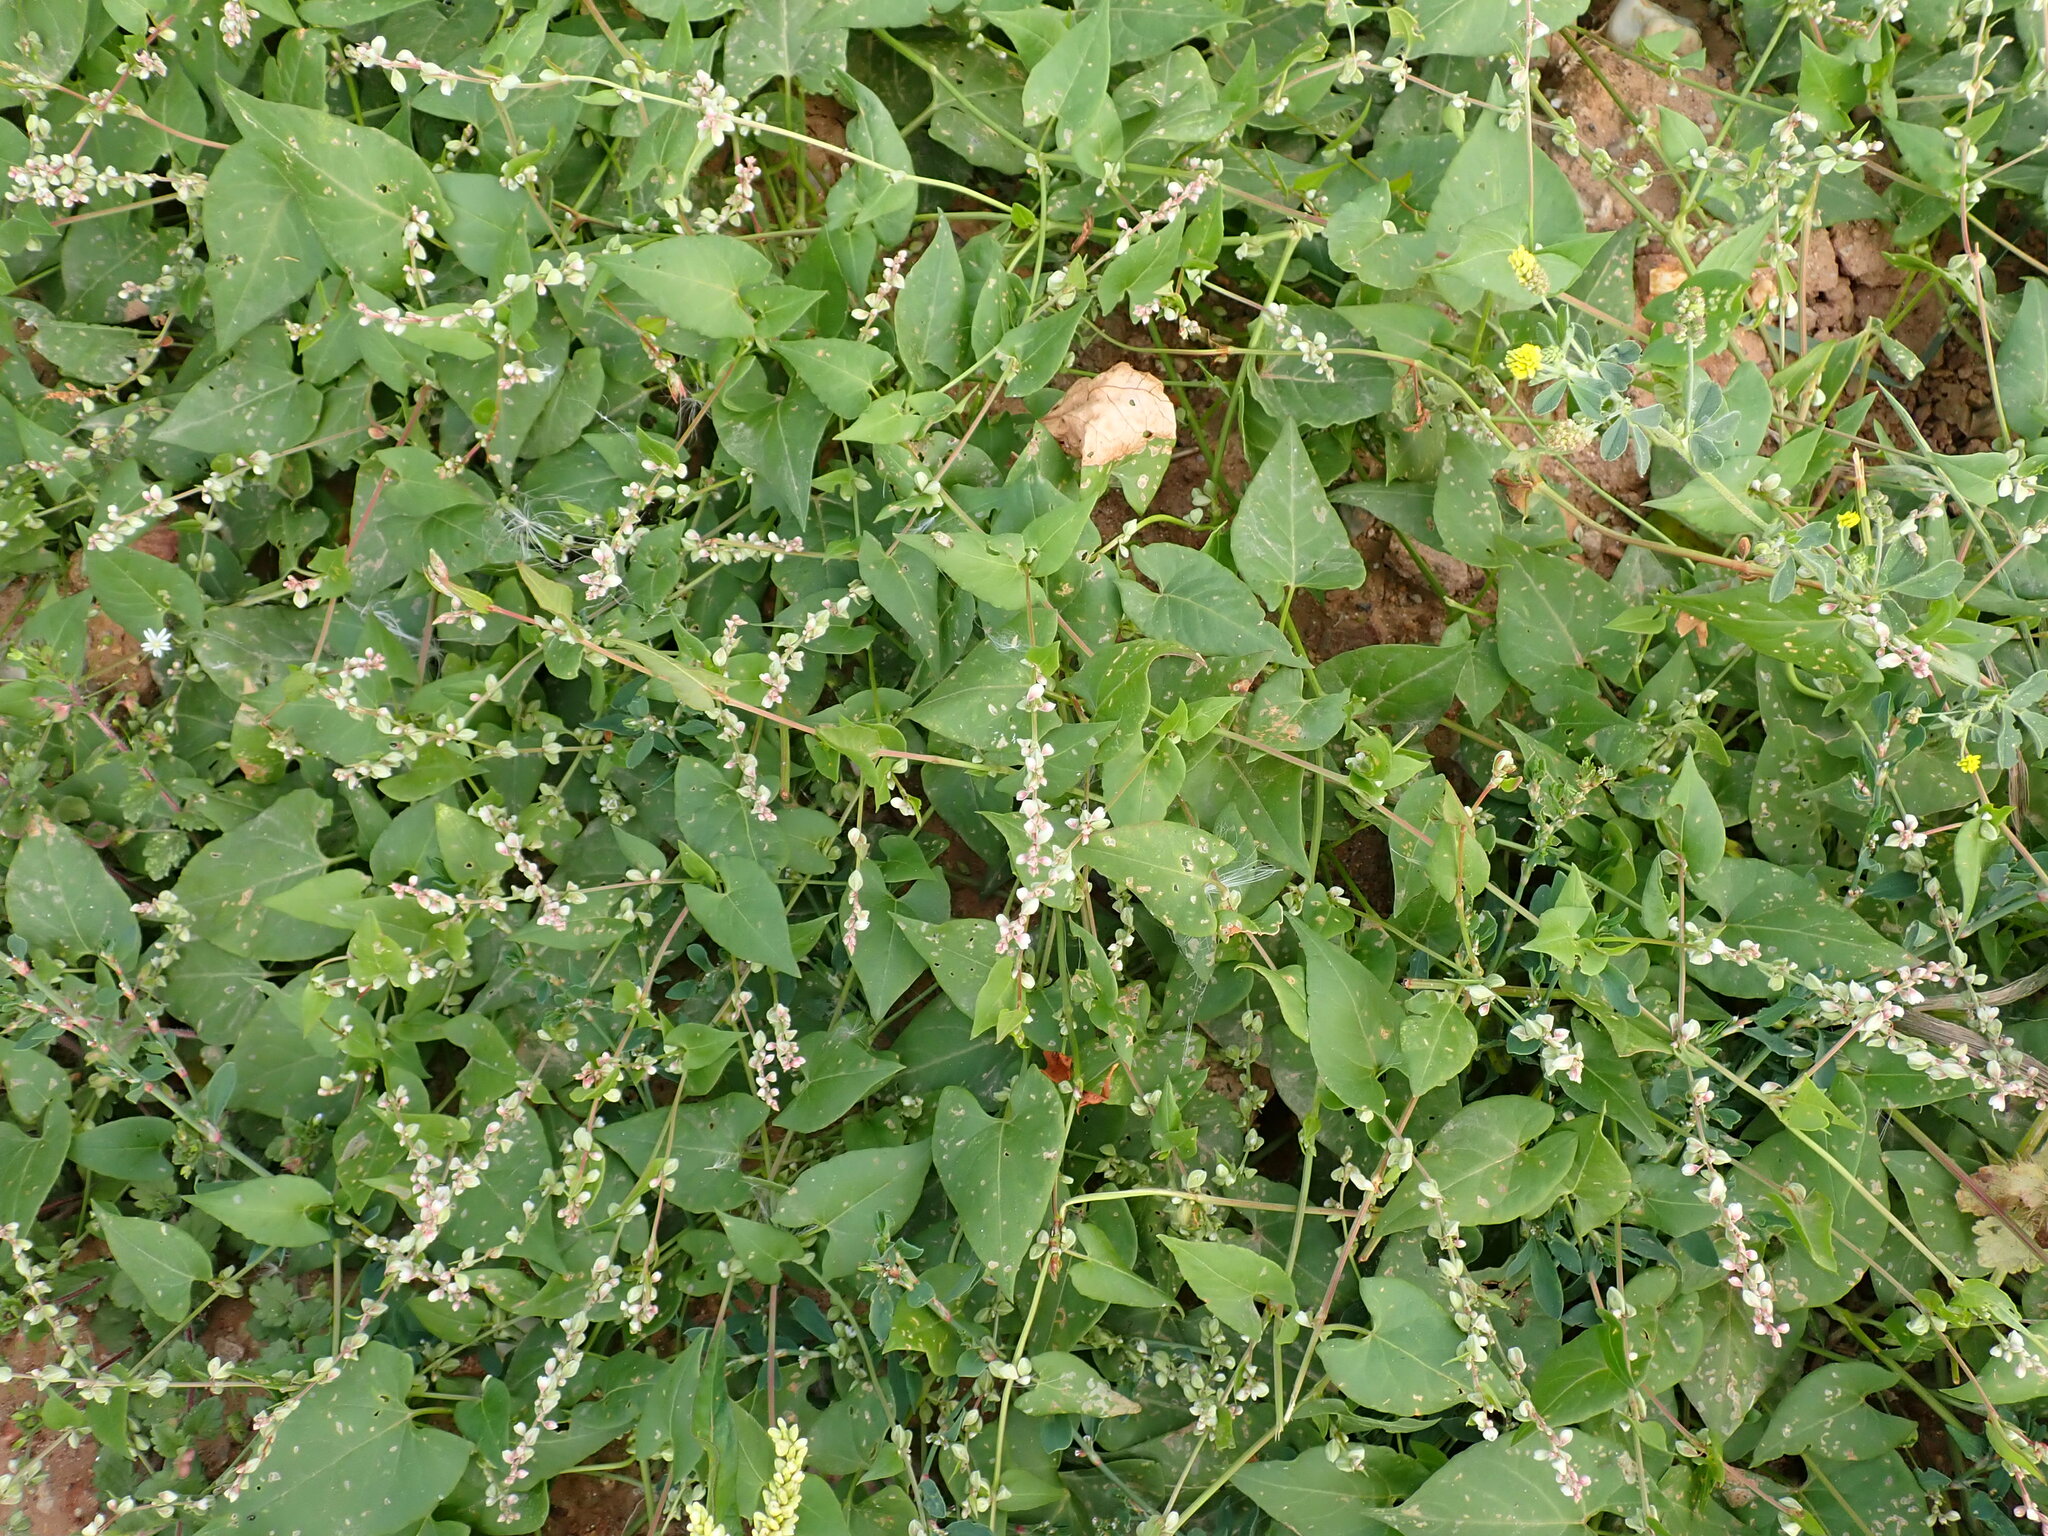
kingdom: Plantae
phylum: Tracheophyta
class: Magnoliopsida
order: Caryophyllales
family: Polygonaceae
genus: Fallopia
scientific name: Fallopia convolvulus
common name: Black bindweed
